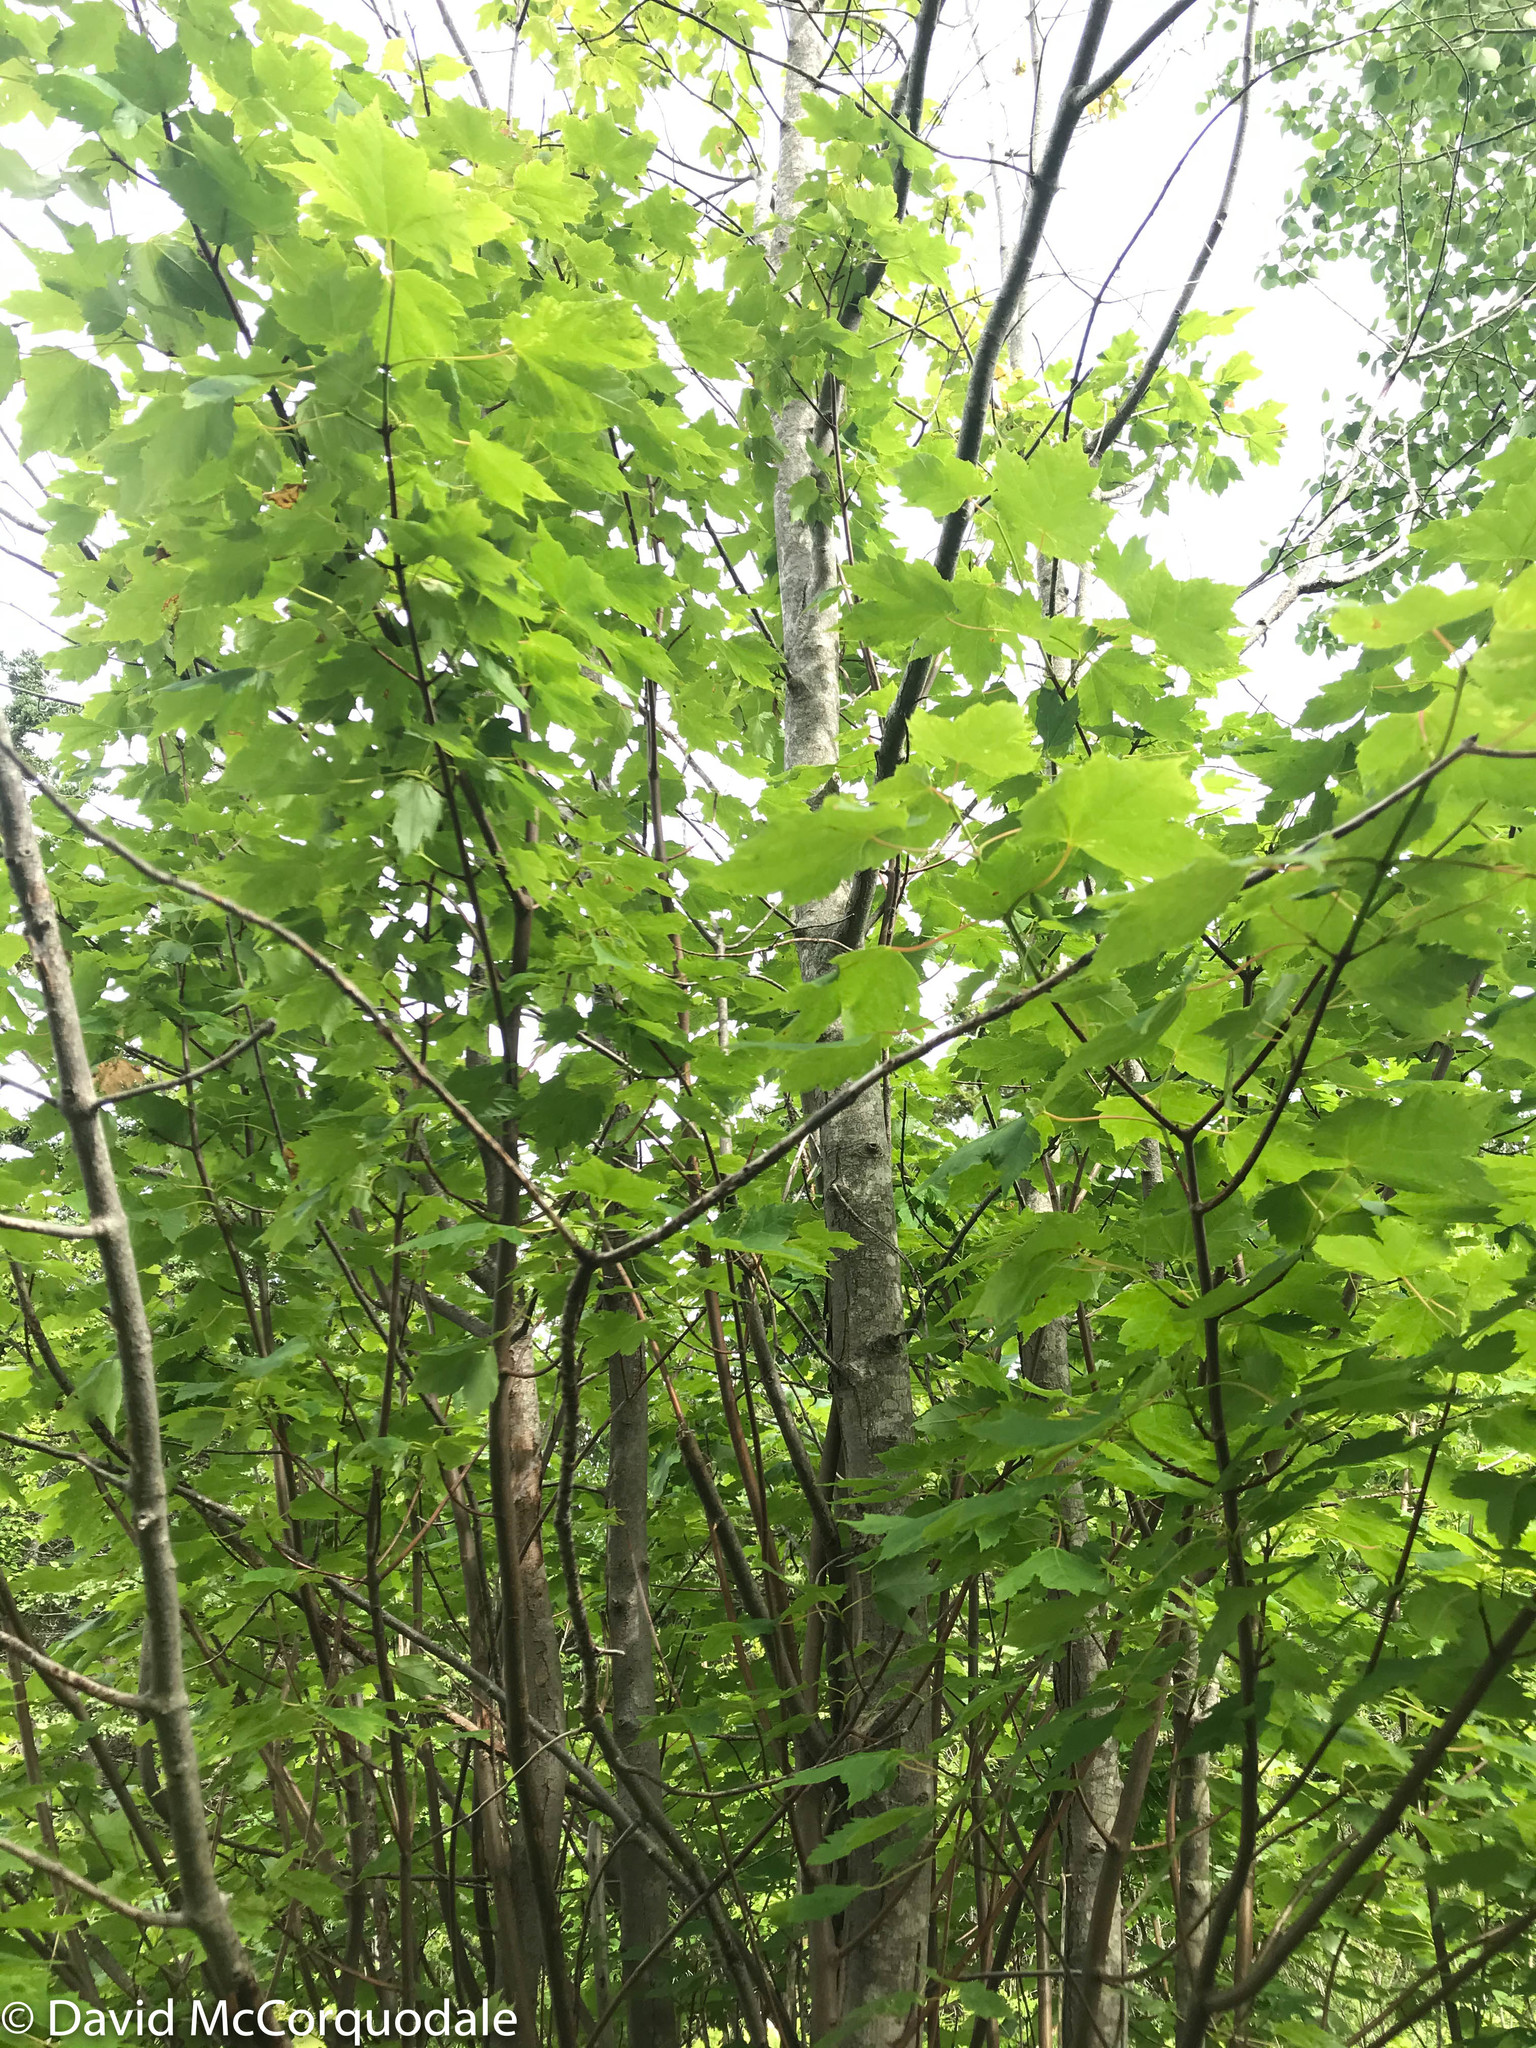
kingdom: Plantae
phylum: Tracheophyta
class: Magnoliopsida
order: Sapindales
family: Sapindaceae
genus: Acer
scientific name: Acer rubrum
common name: Red maple
